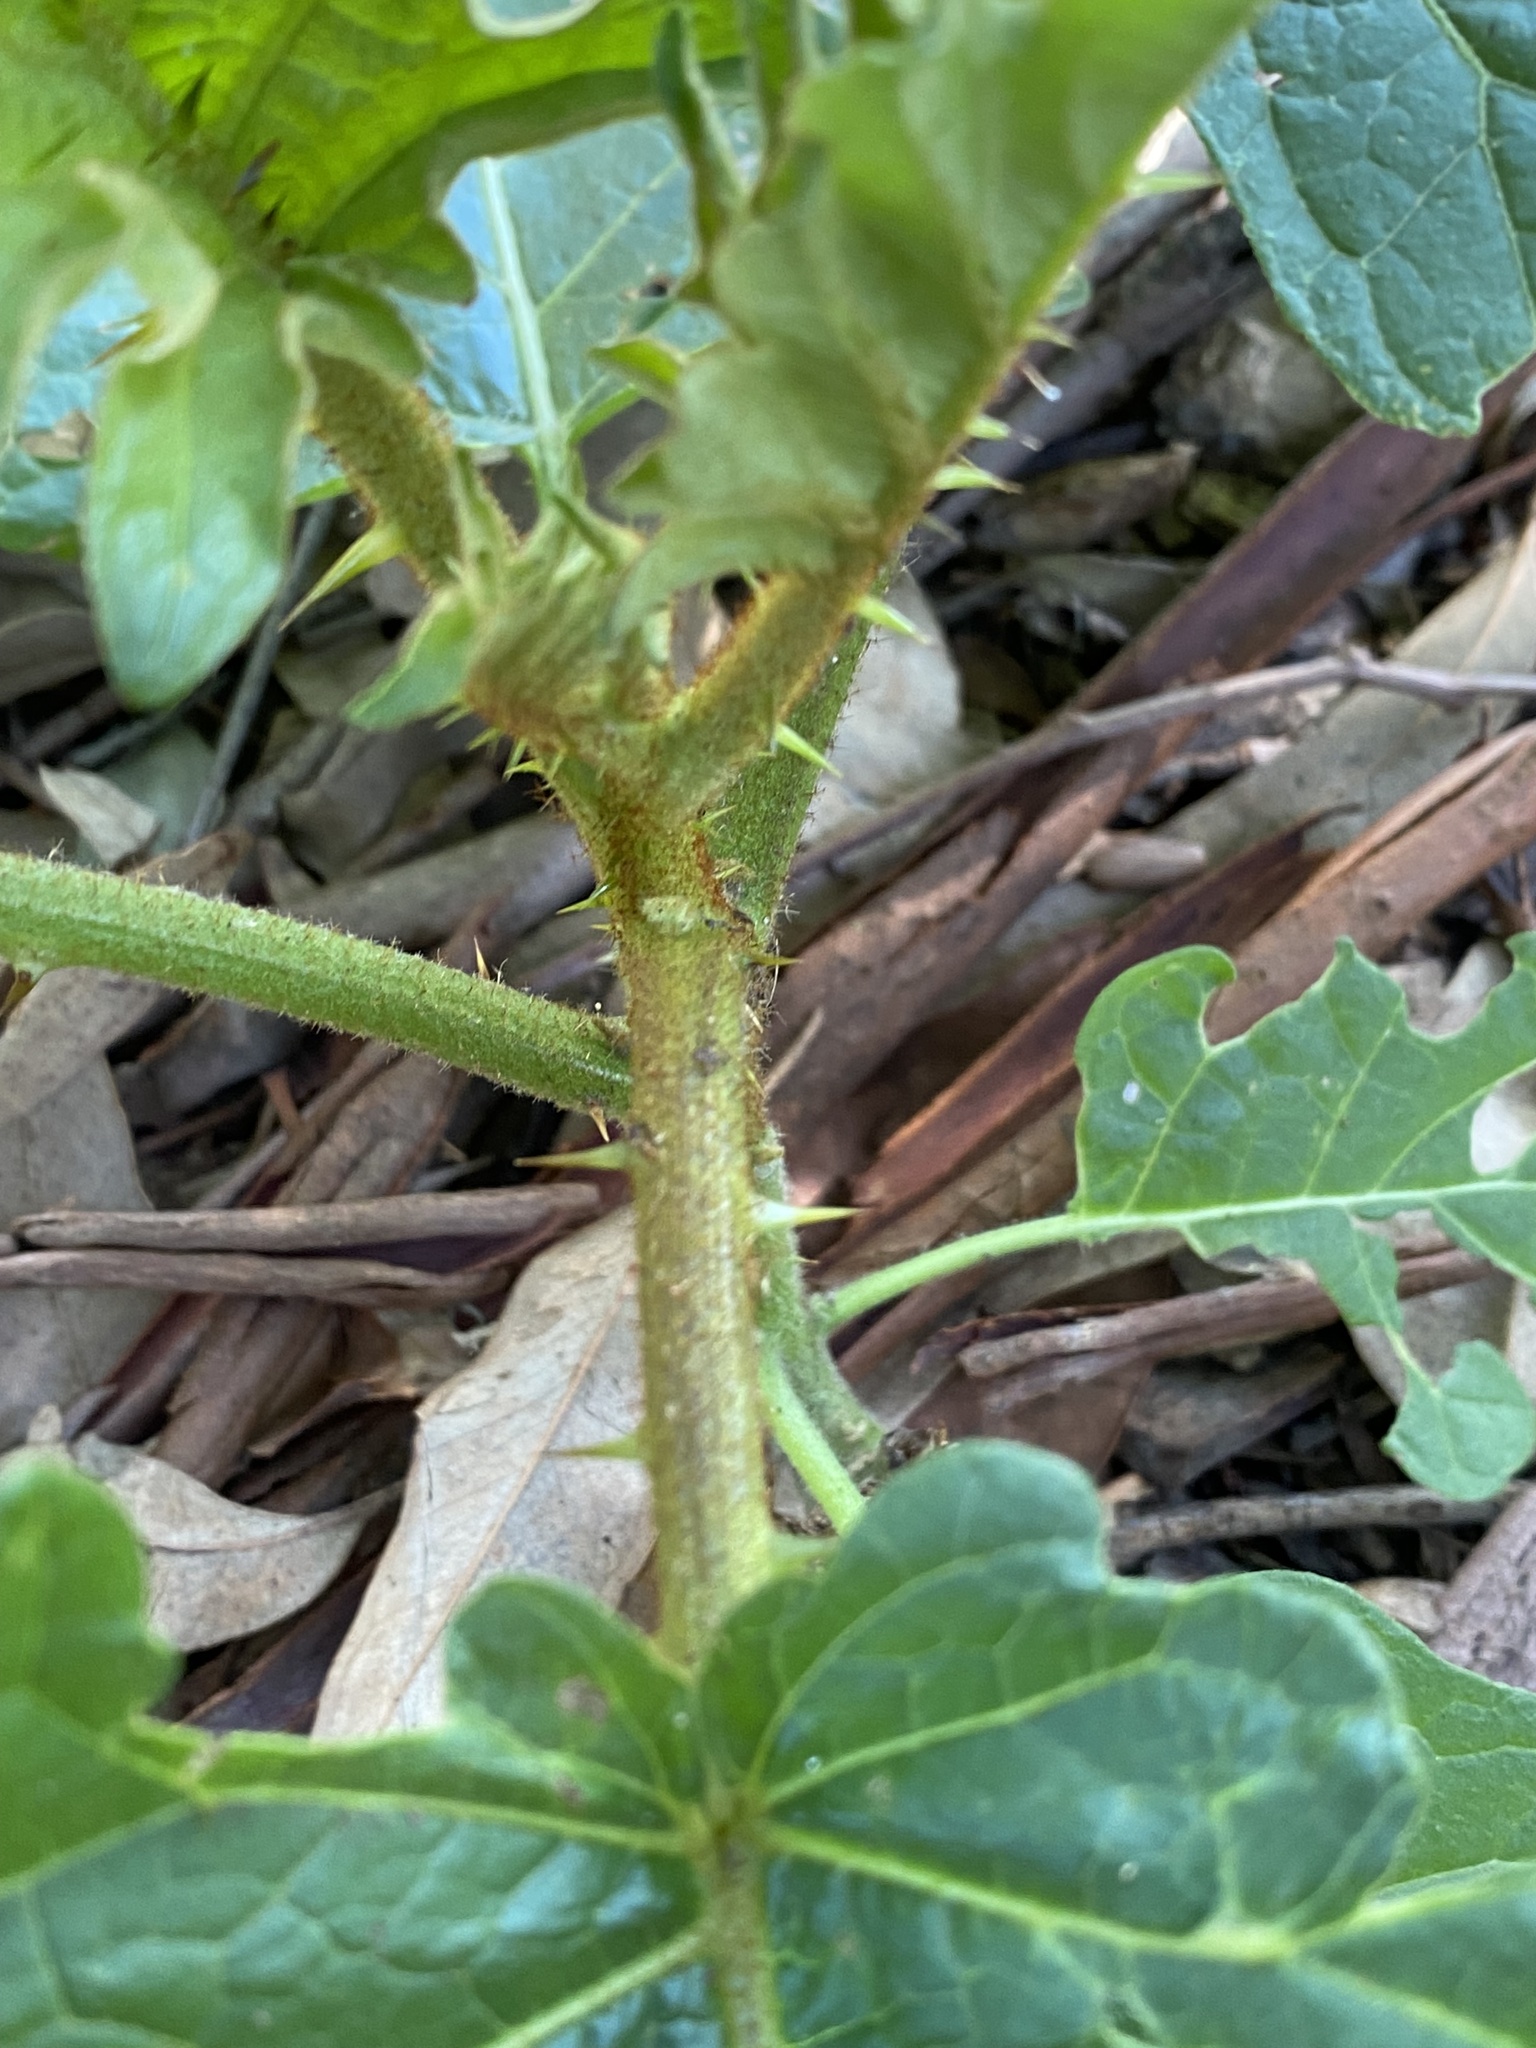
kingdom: Plantae
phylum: Tracheophyta
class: Magnoliopsida
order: Solanales
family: Solanaceae
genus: Solanum
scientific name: Solanum chrysotrichum
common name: Nightshade
